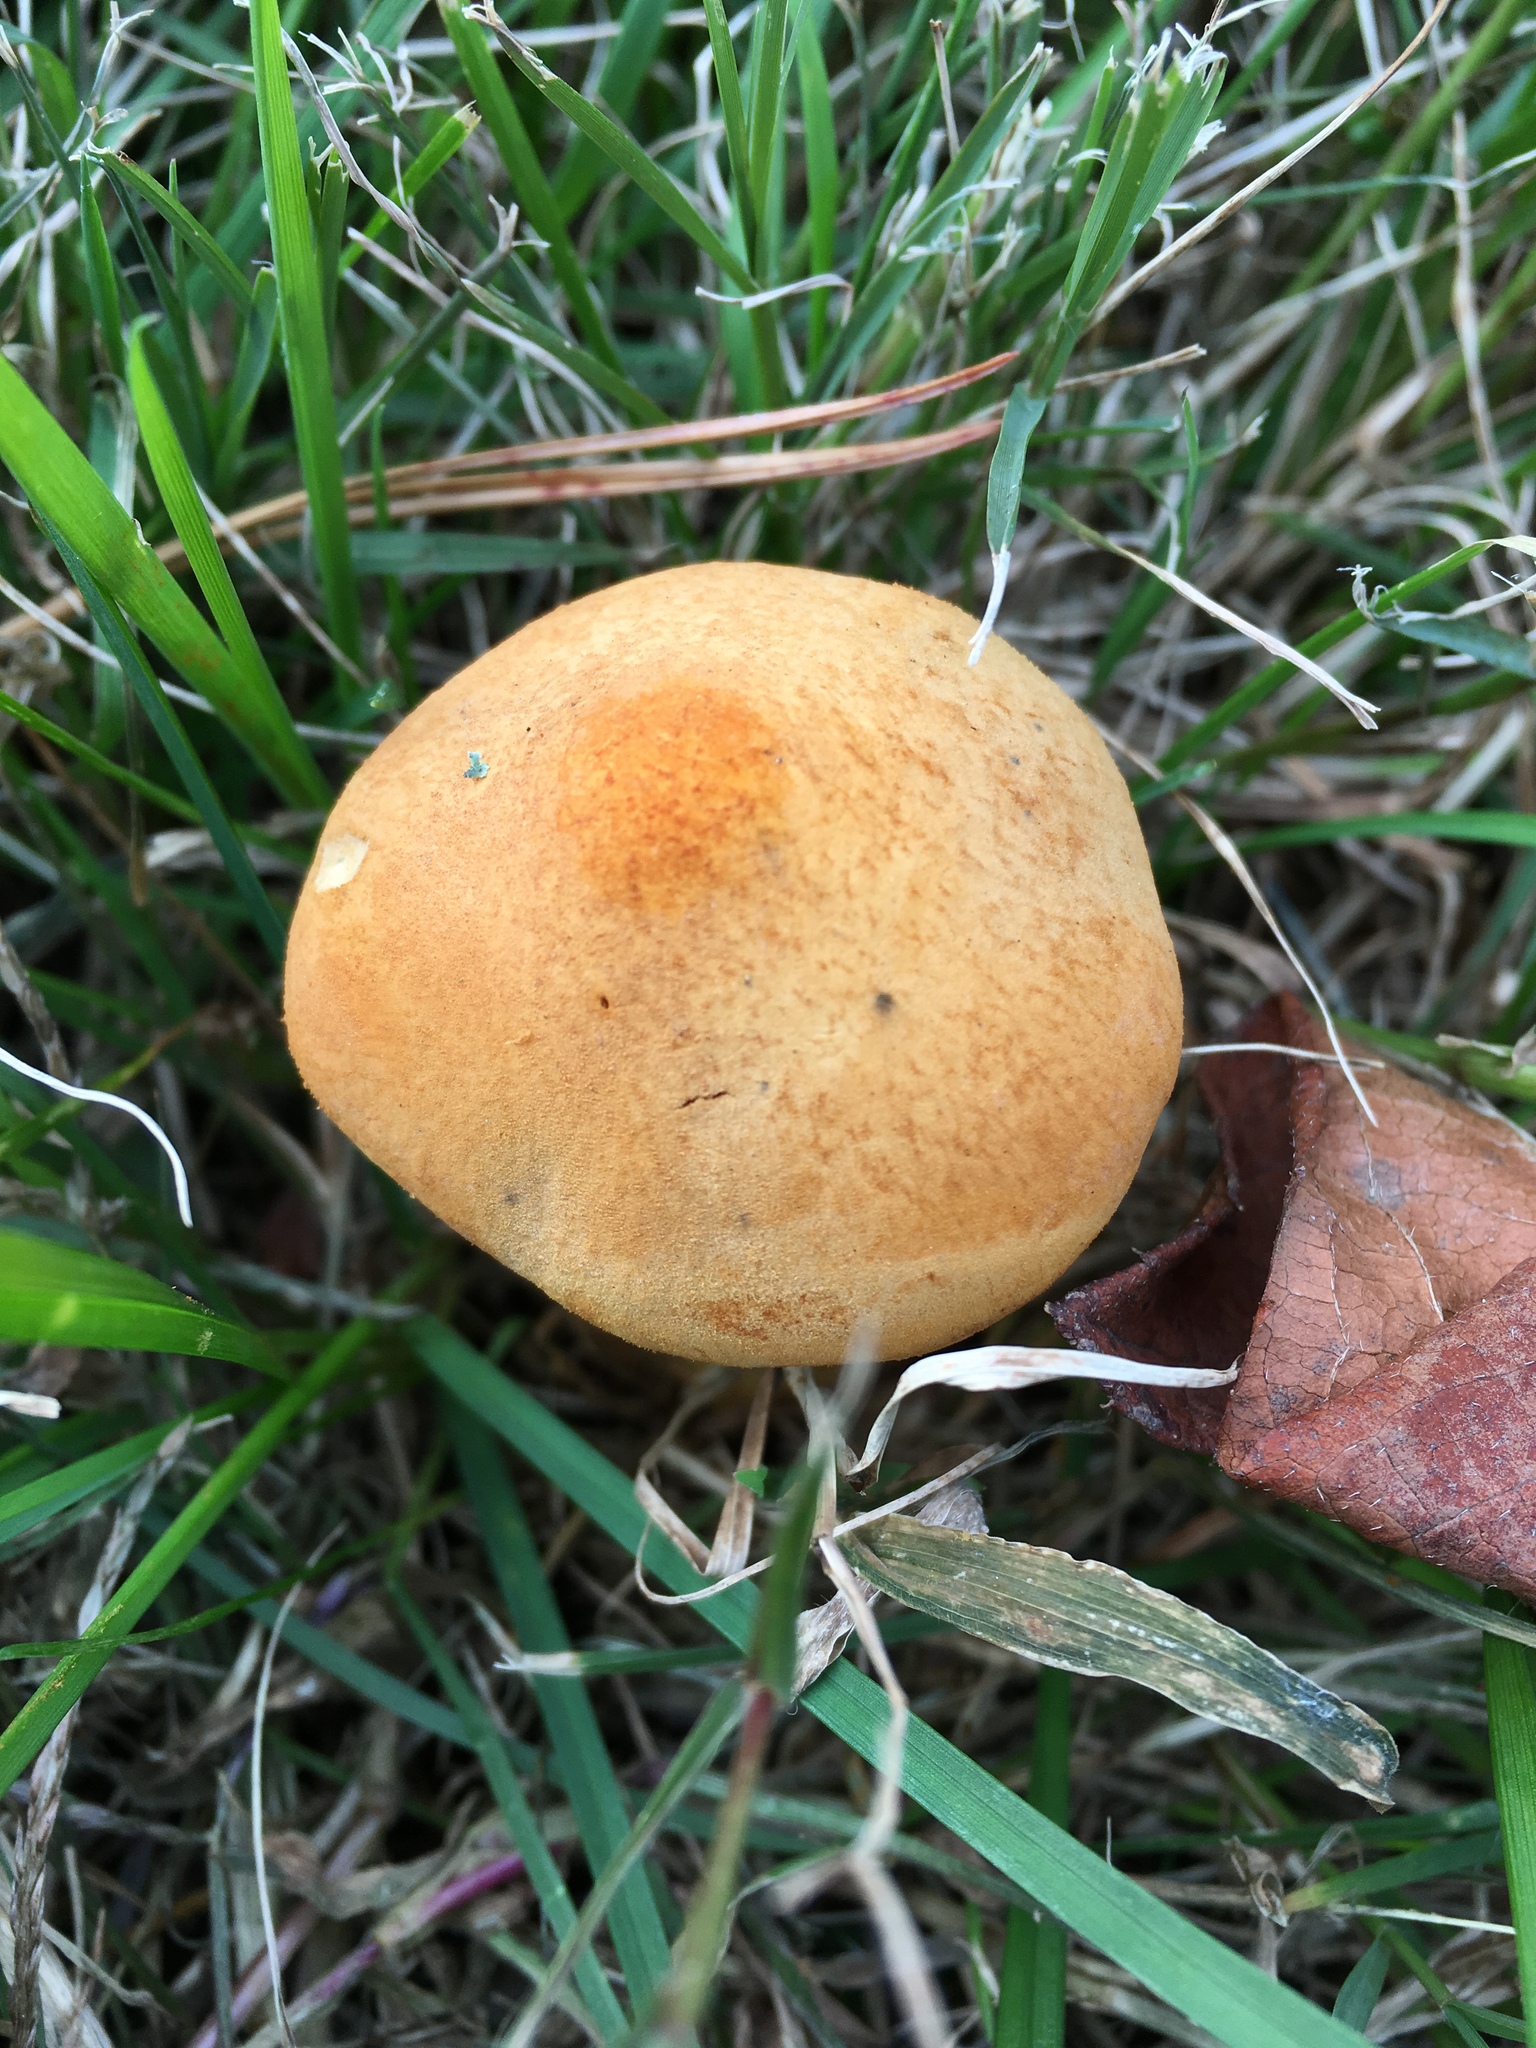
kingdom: Fungi
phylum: Basidiomycota
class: Agaricomycetes
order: Agaricales
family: Tricholomataceae
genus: Phaeolepiota
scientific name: Phaeolepiota aurea
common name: Golden bootleg
